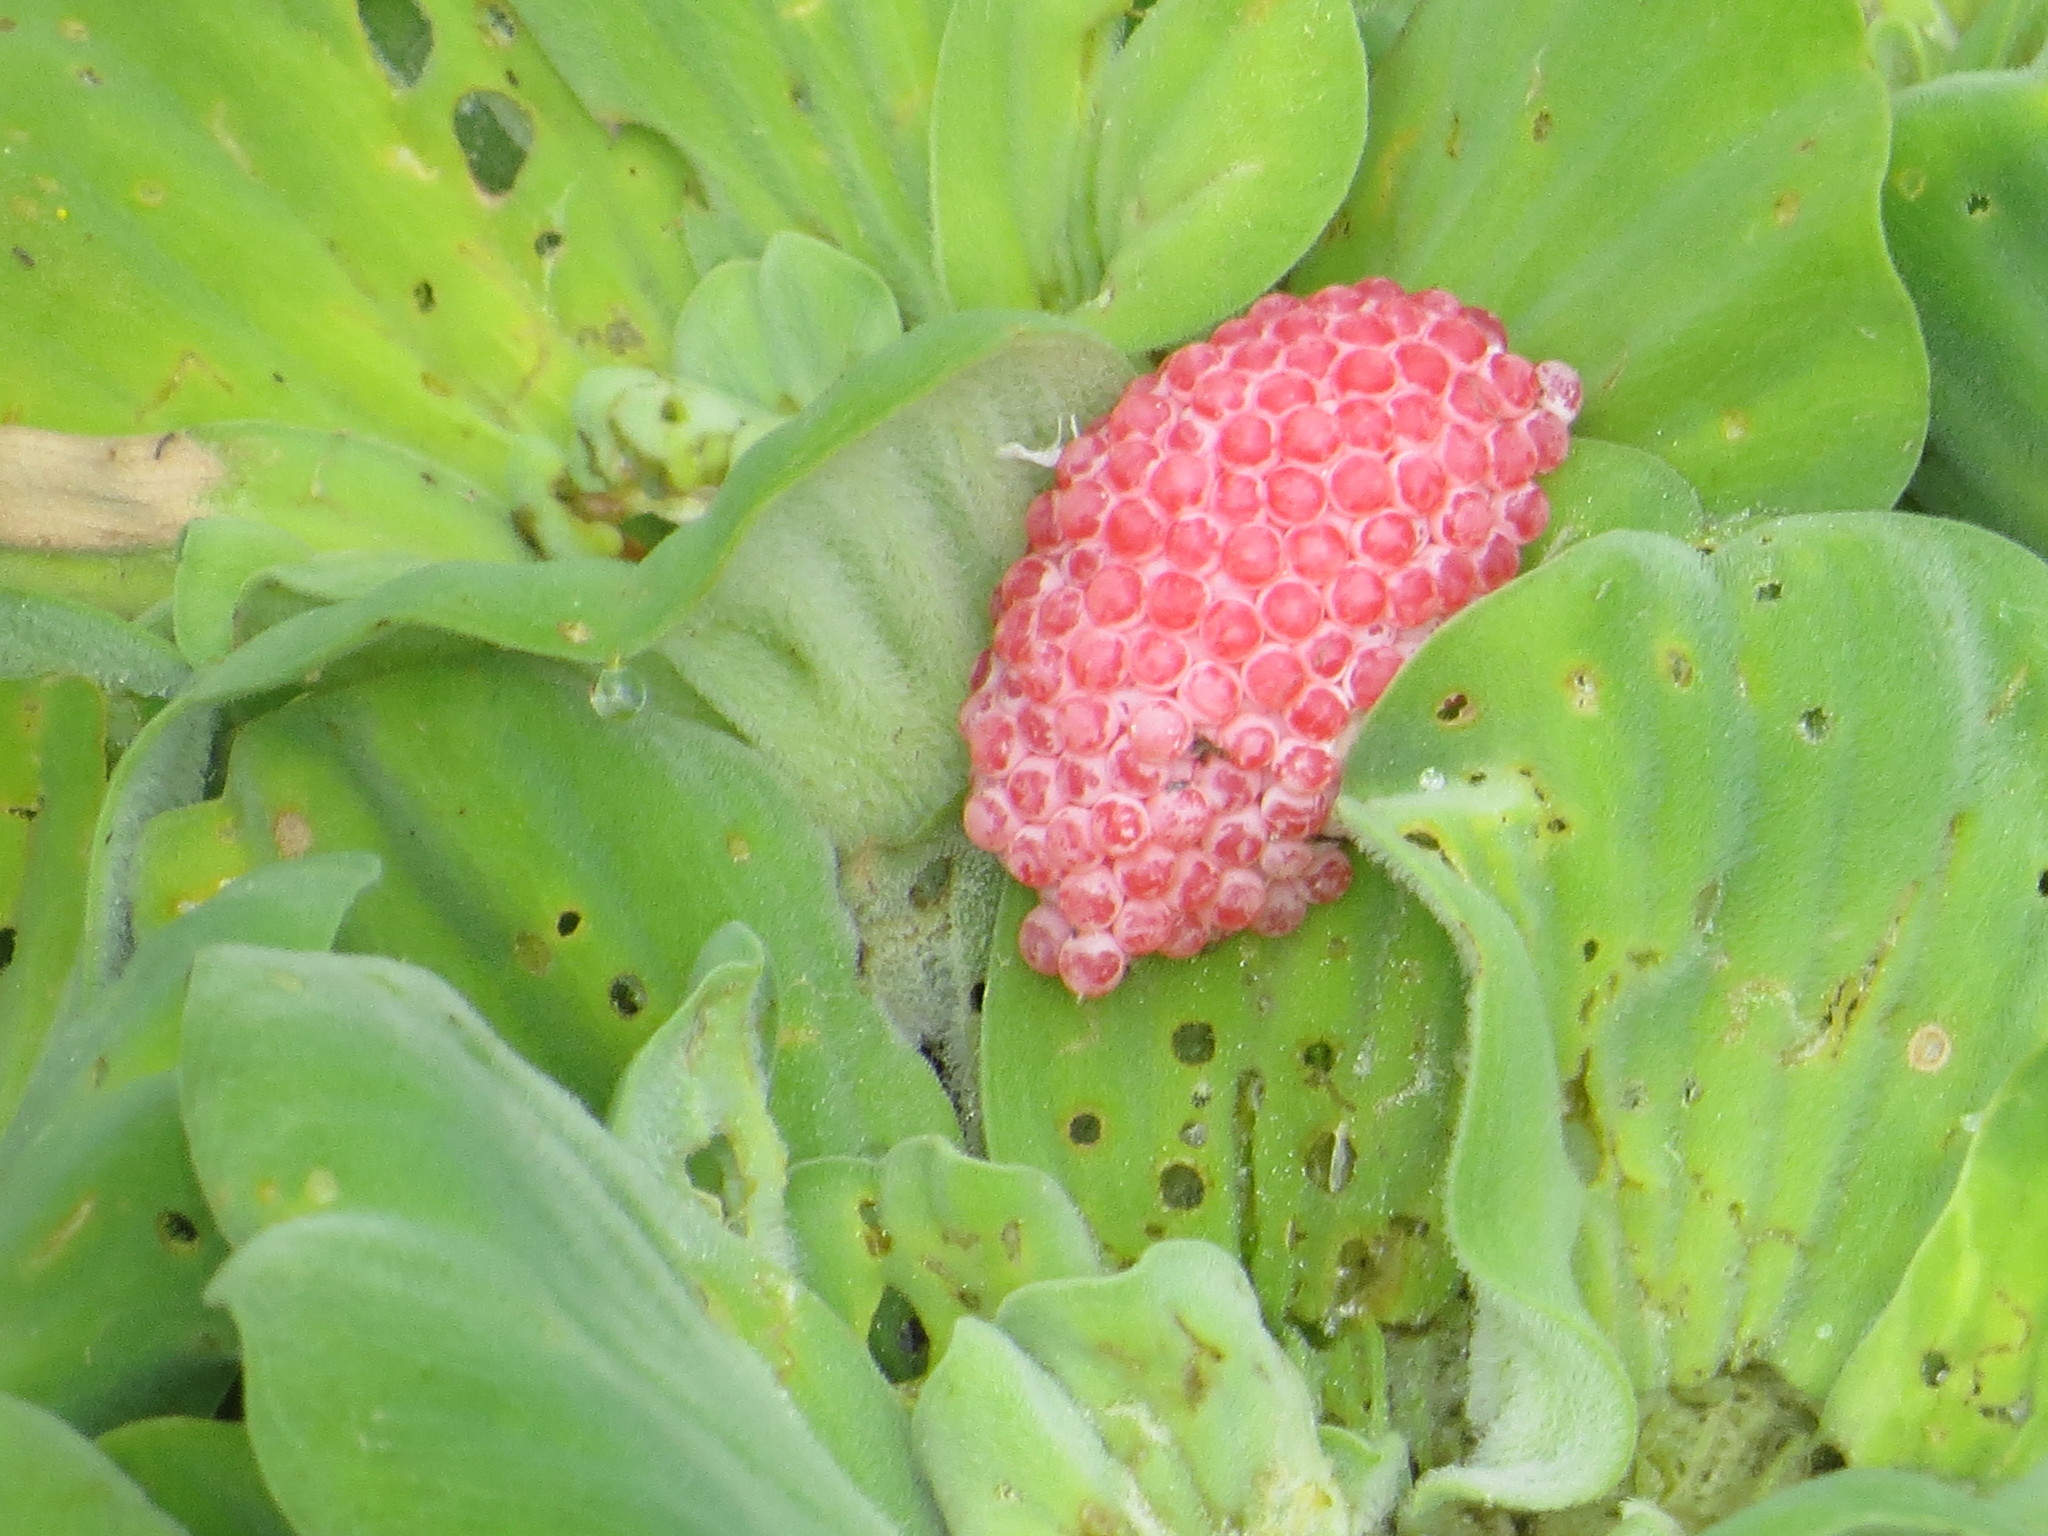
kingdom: Plantae
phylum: Tracheophyta
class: Liliopsida
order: Alismatales
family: Araceae
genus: Pistia
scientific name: Pistia stratiotes
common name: Water lettuce
